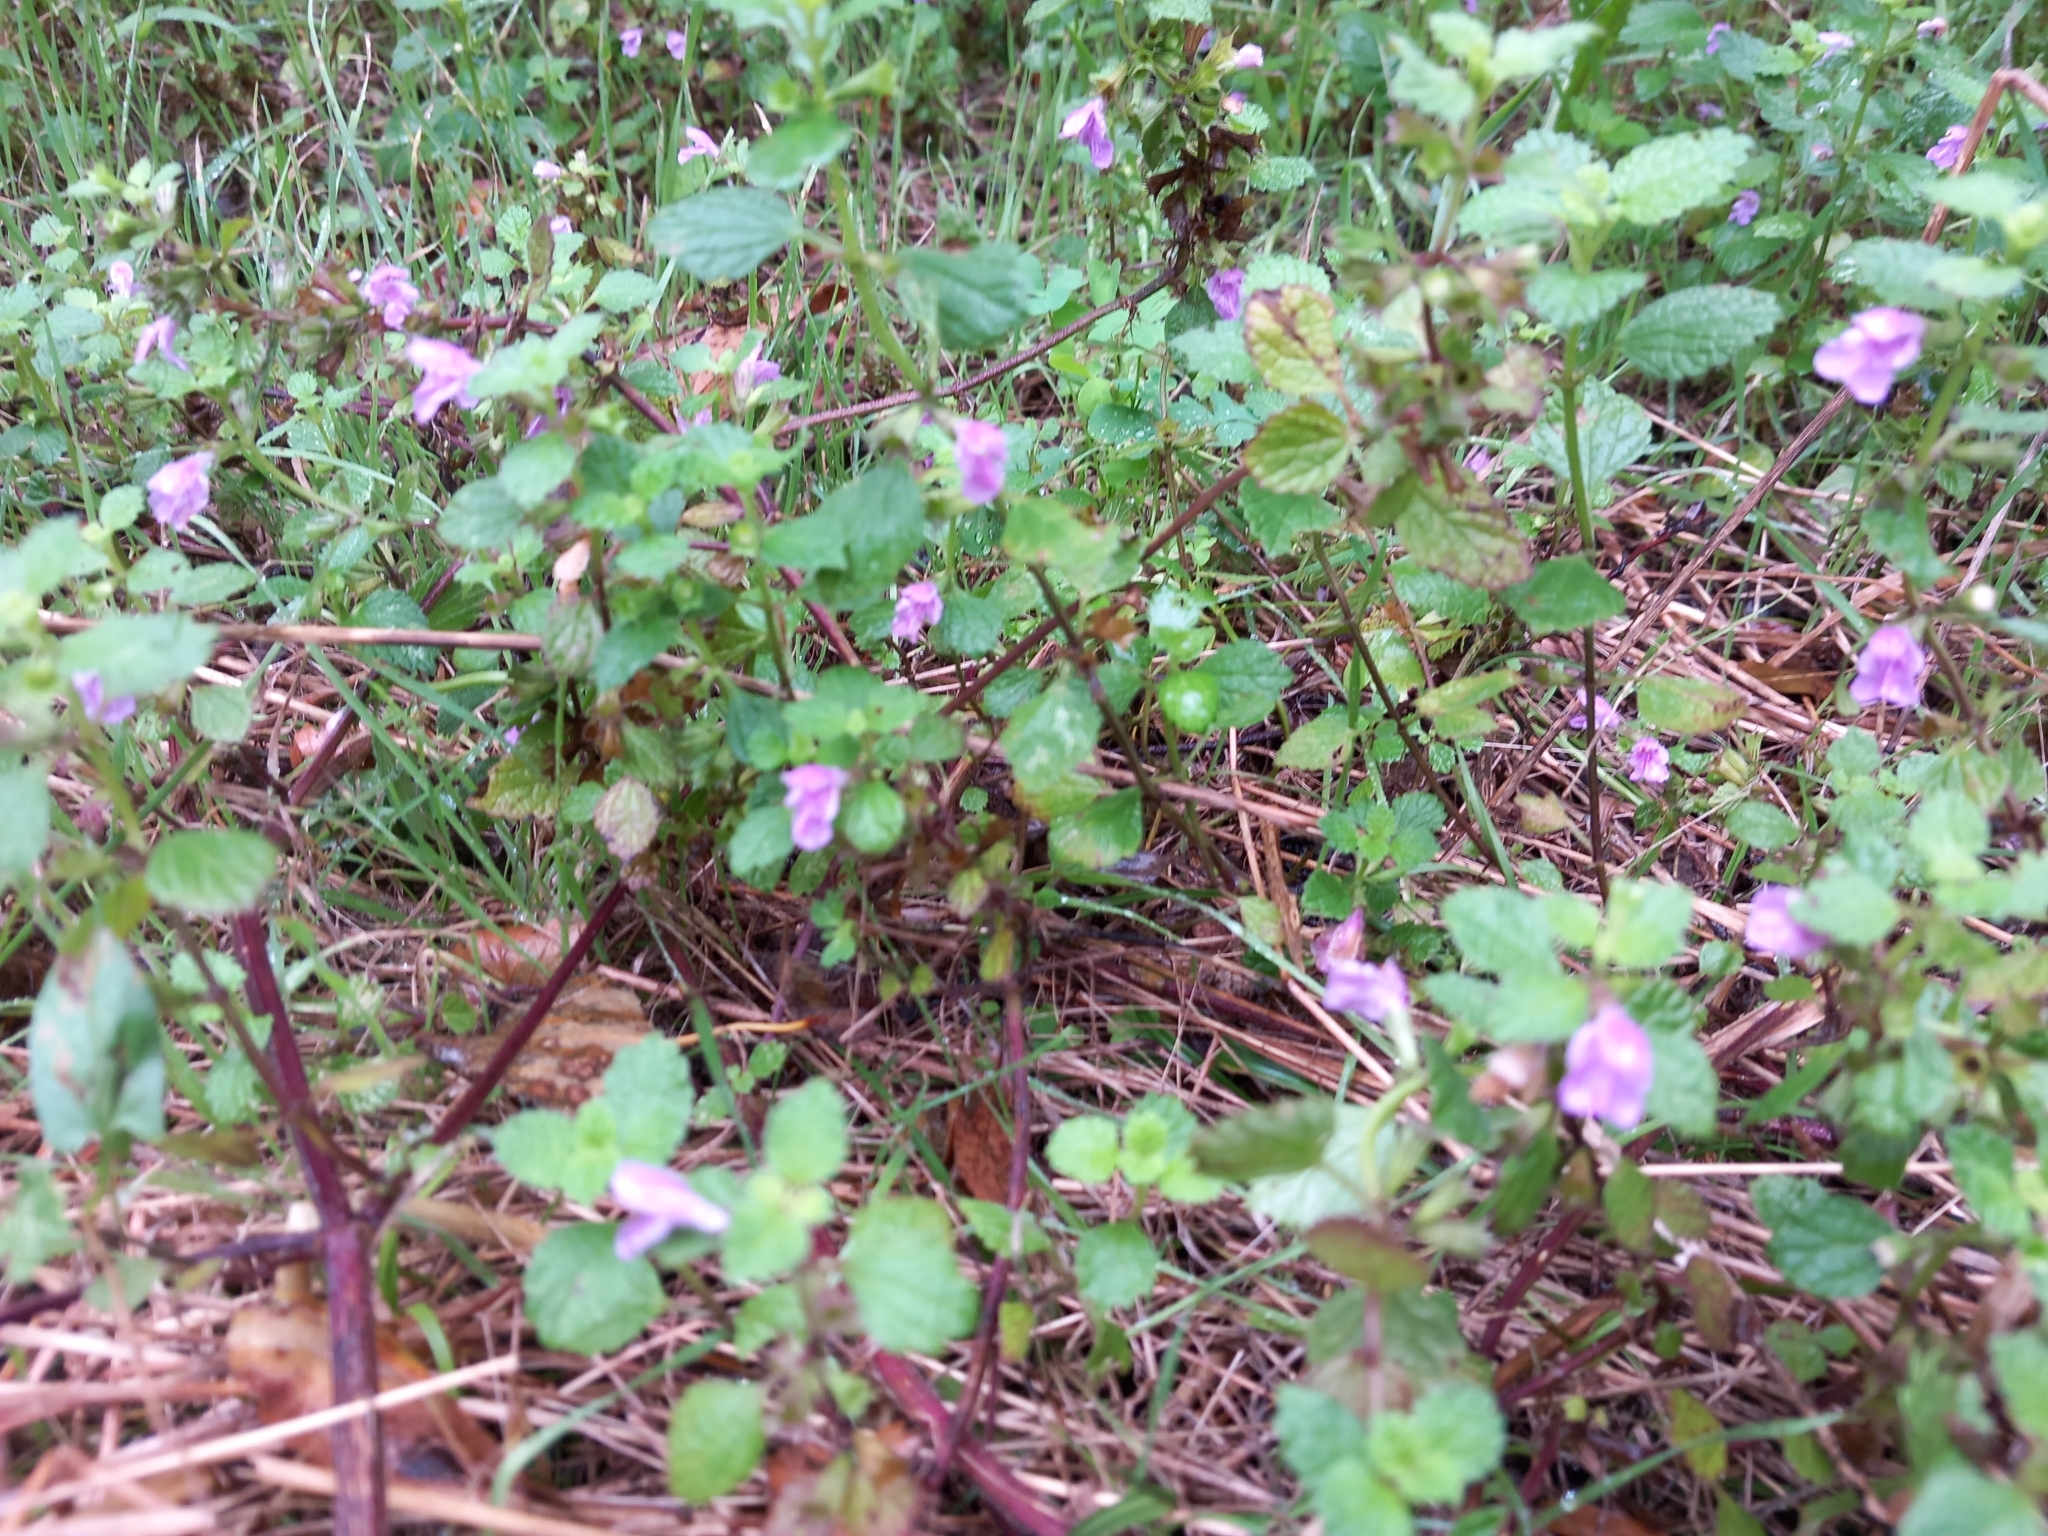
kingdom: Plantae
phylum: Tracheophyta
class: Magnoliopsida
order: Lamiales
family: Lamiaceae
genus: Ballota
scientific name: Ballota nigra
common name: Black horehound
